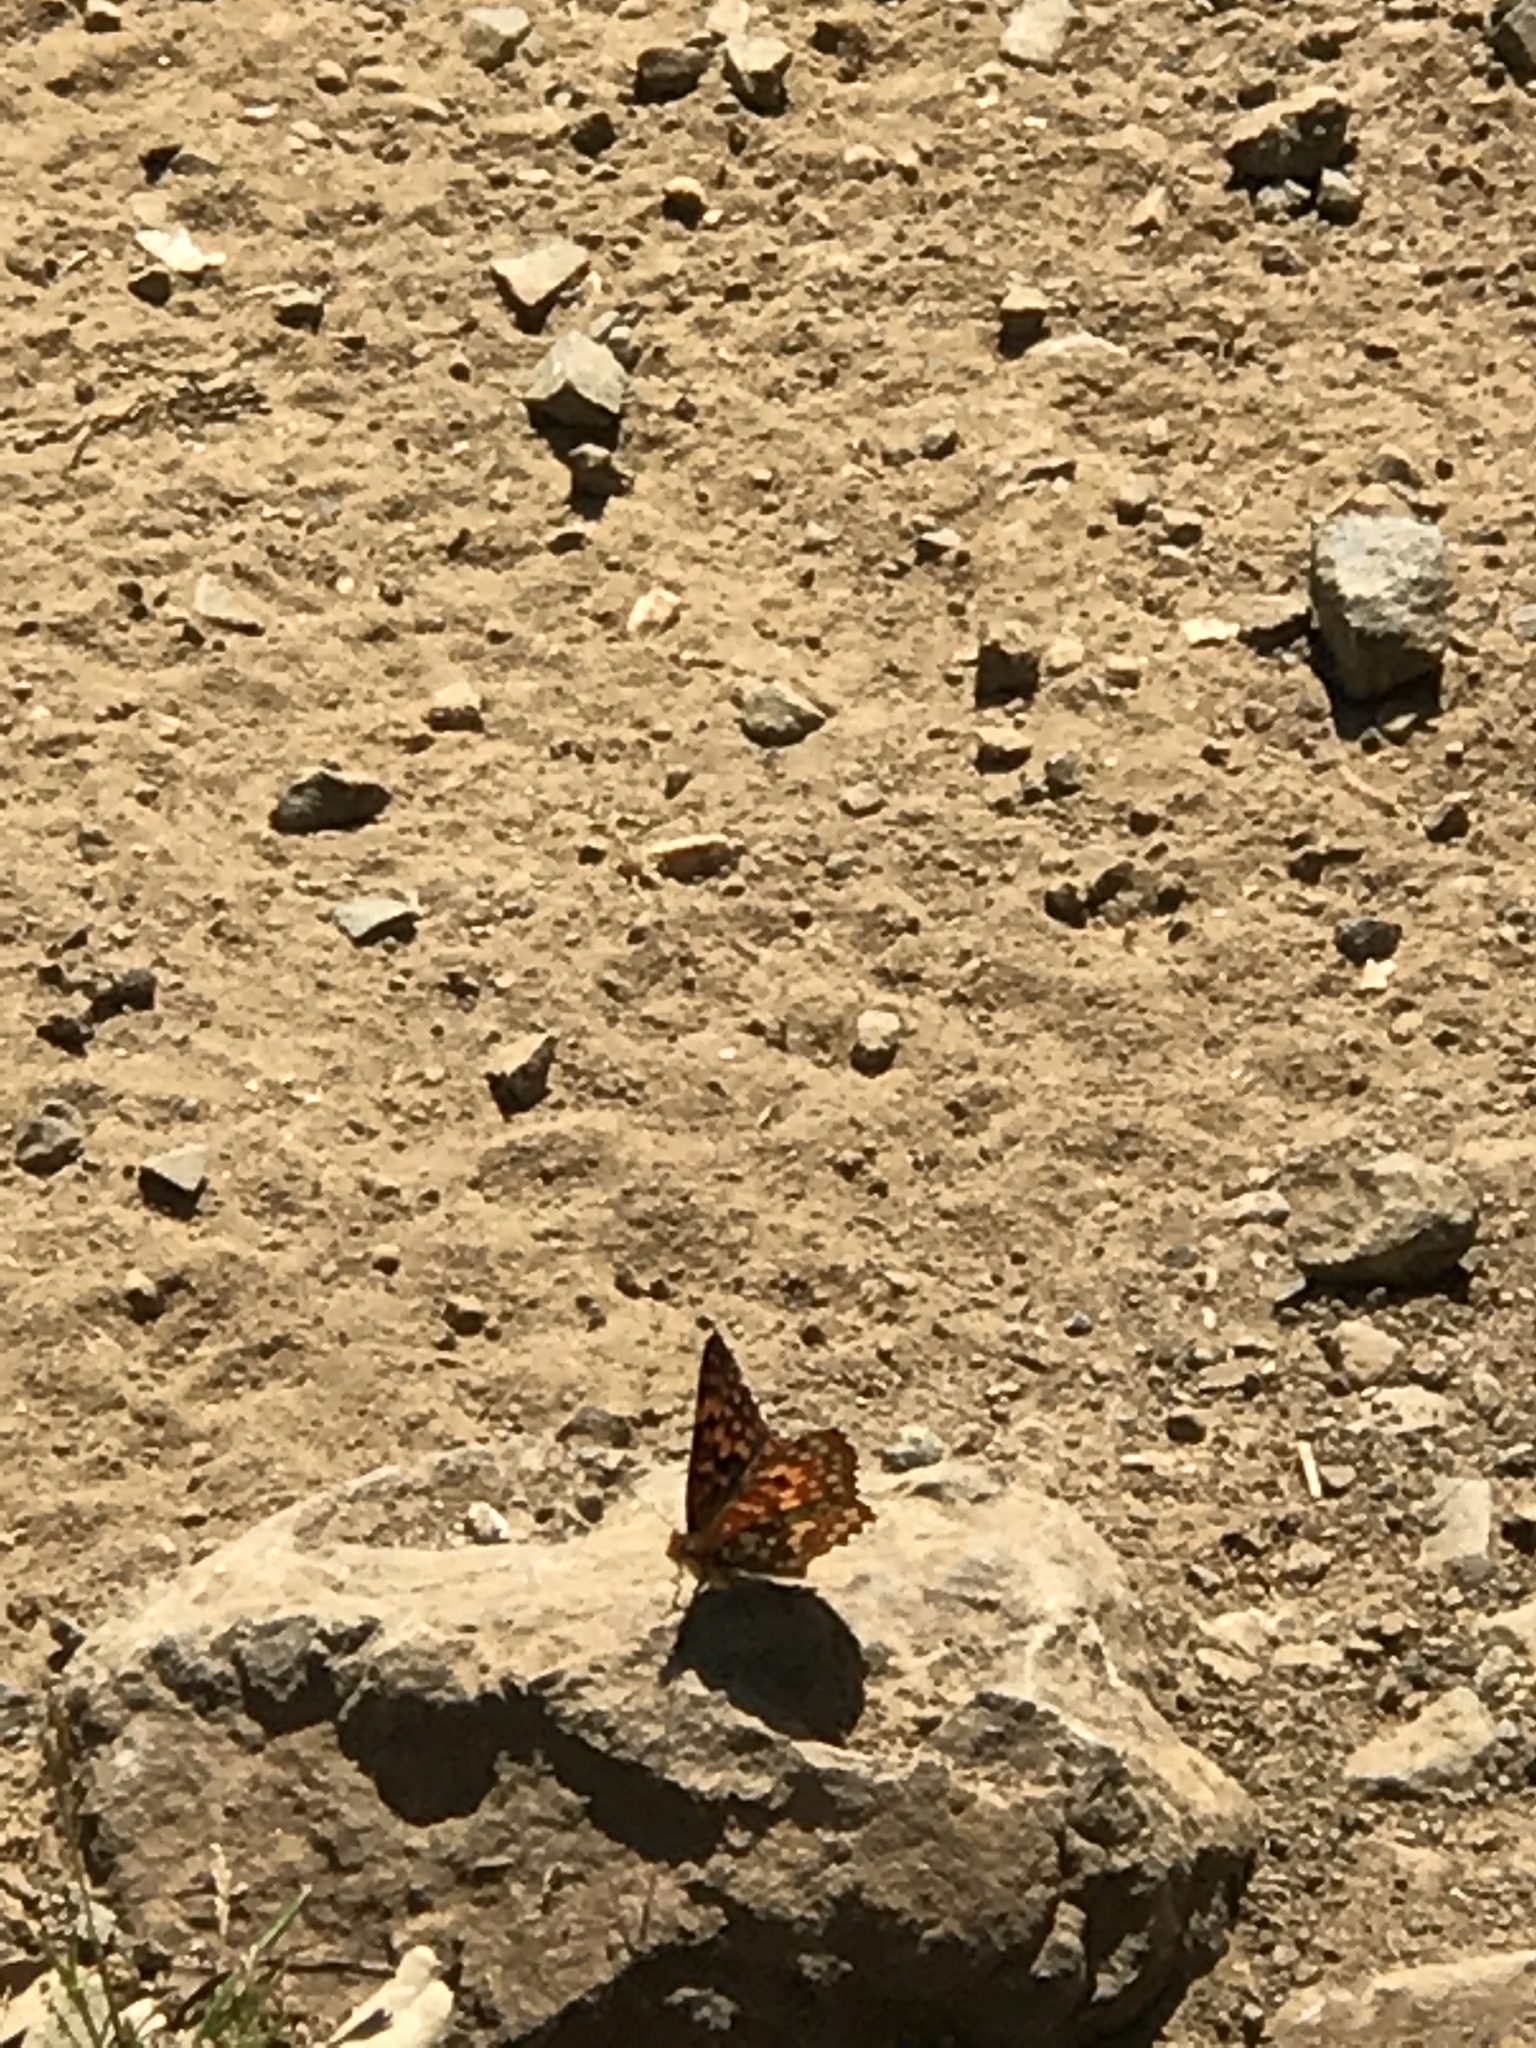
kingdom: Animalia
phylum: Arthropoda
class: Insecta
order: Lepidoptera
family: Nymphalidae
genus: Chlosyne
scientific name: Chlosyne palla
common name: Northern checkerspot
